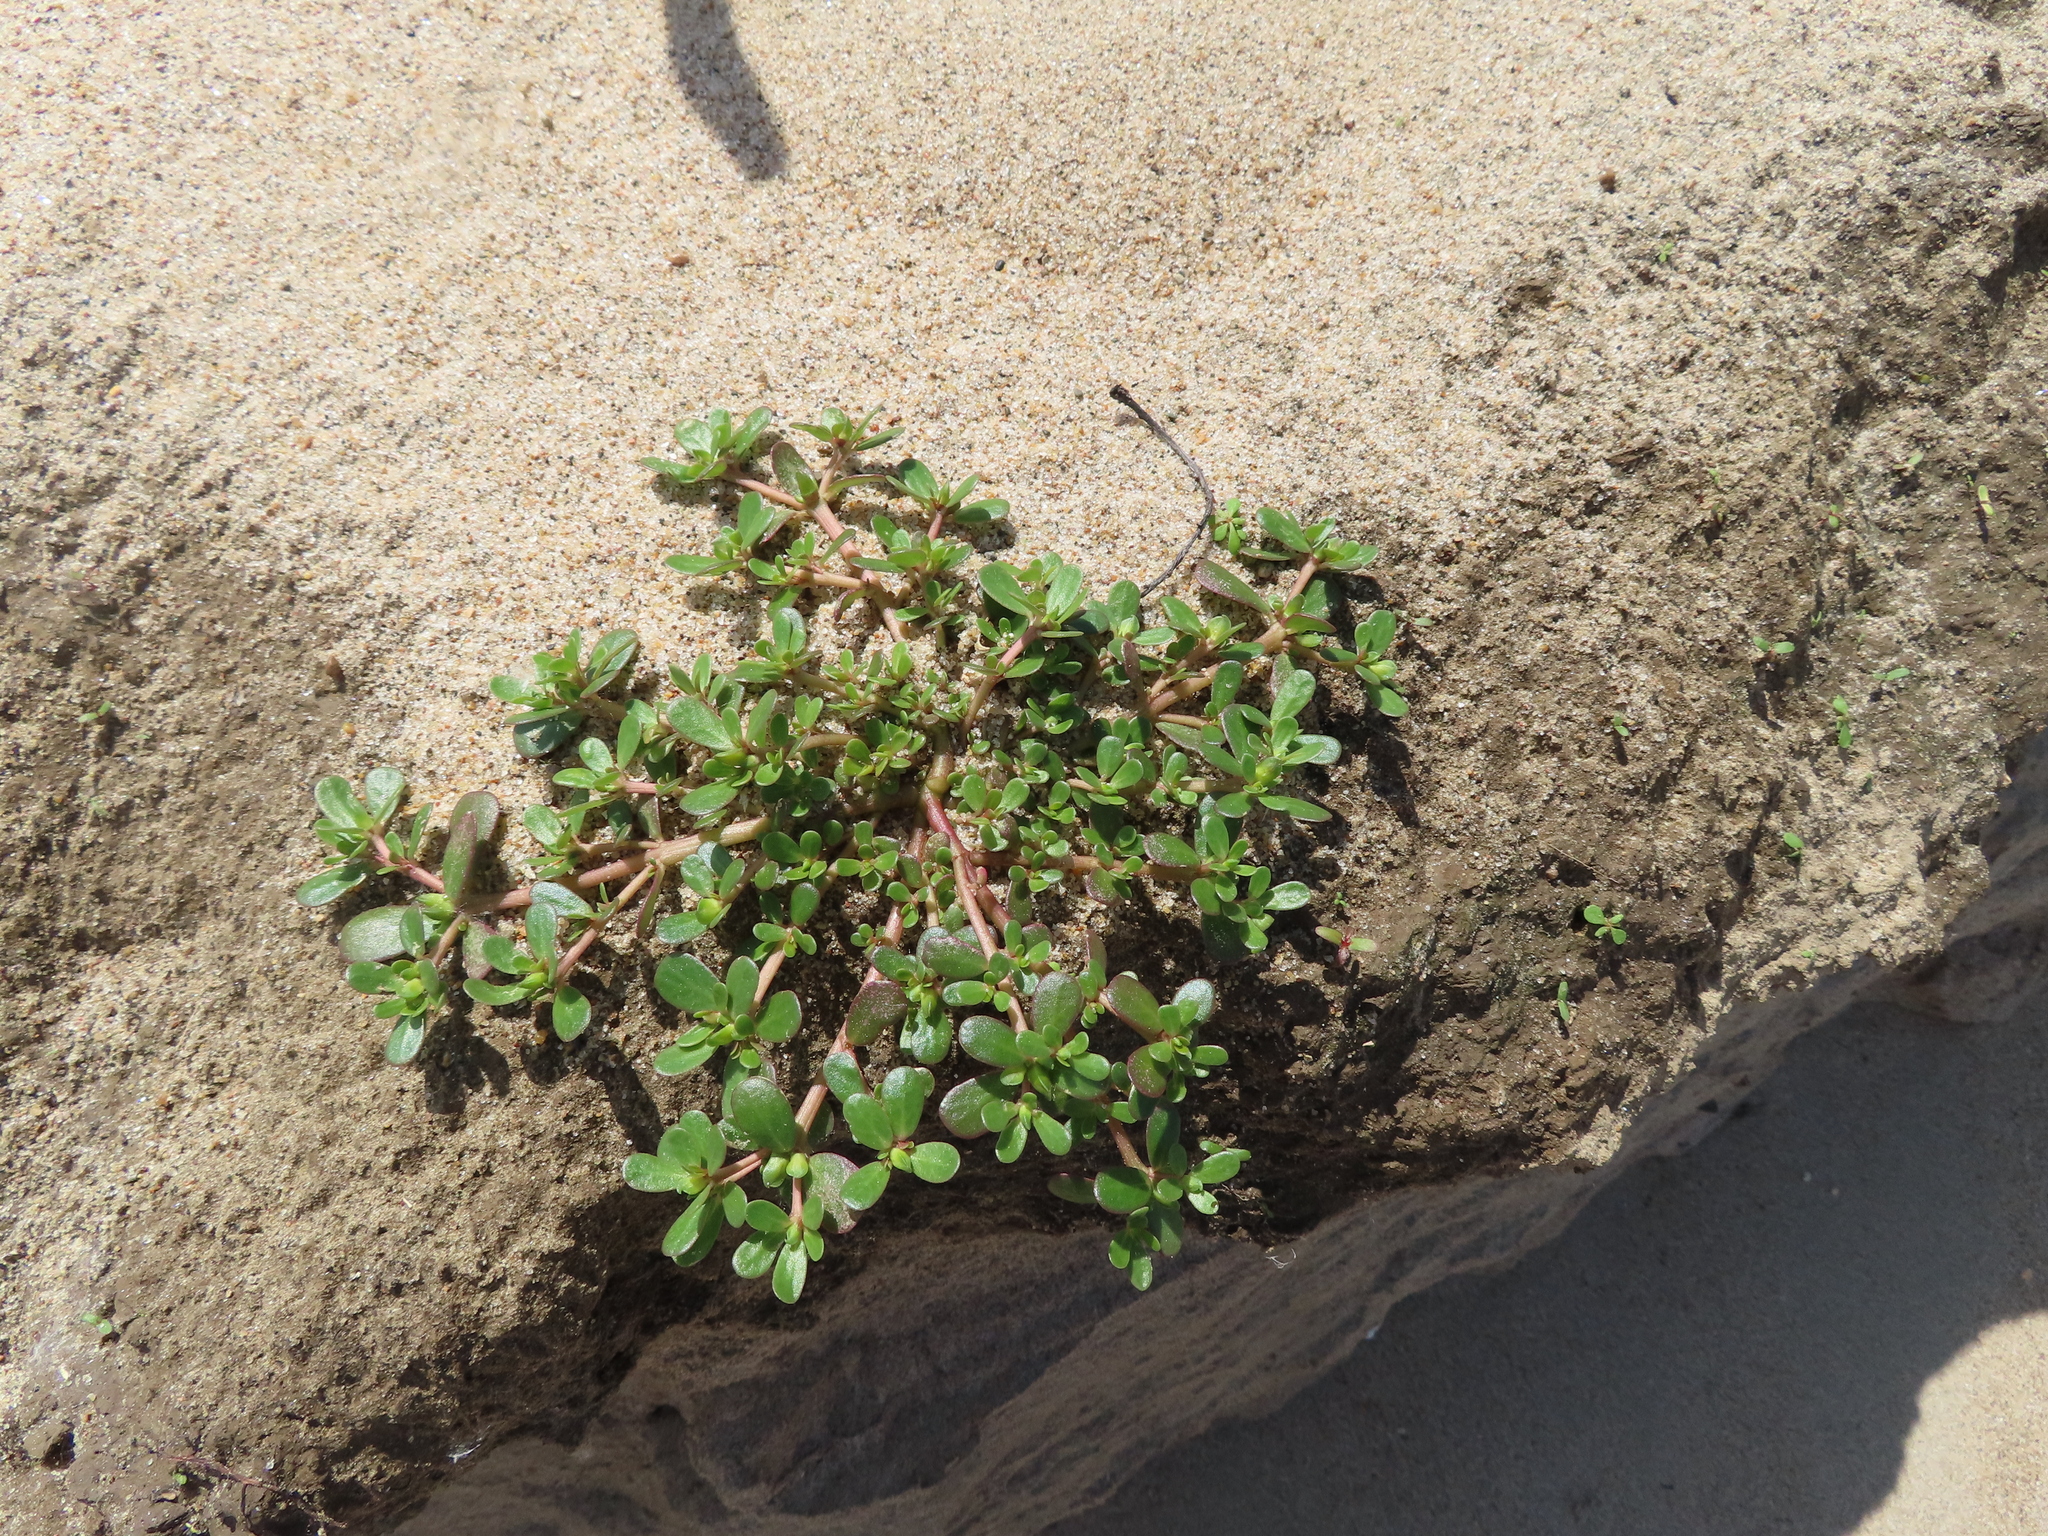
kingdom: Plantae
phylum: Tracheophyta
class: Magnoliopsida
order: Caryophyllales
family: Portulacaceae
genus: Portulaca
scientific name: Portulaca oleracea
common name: Common purslane
